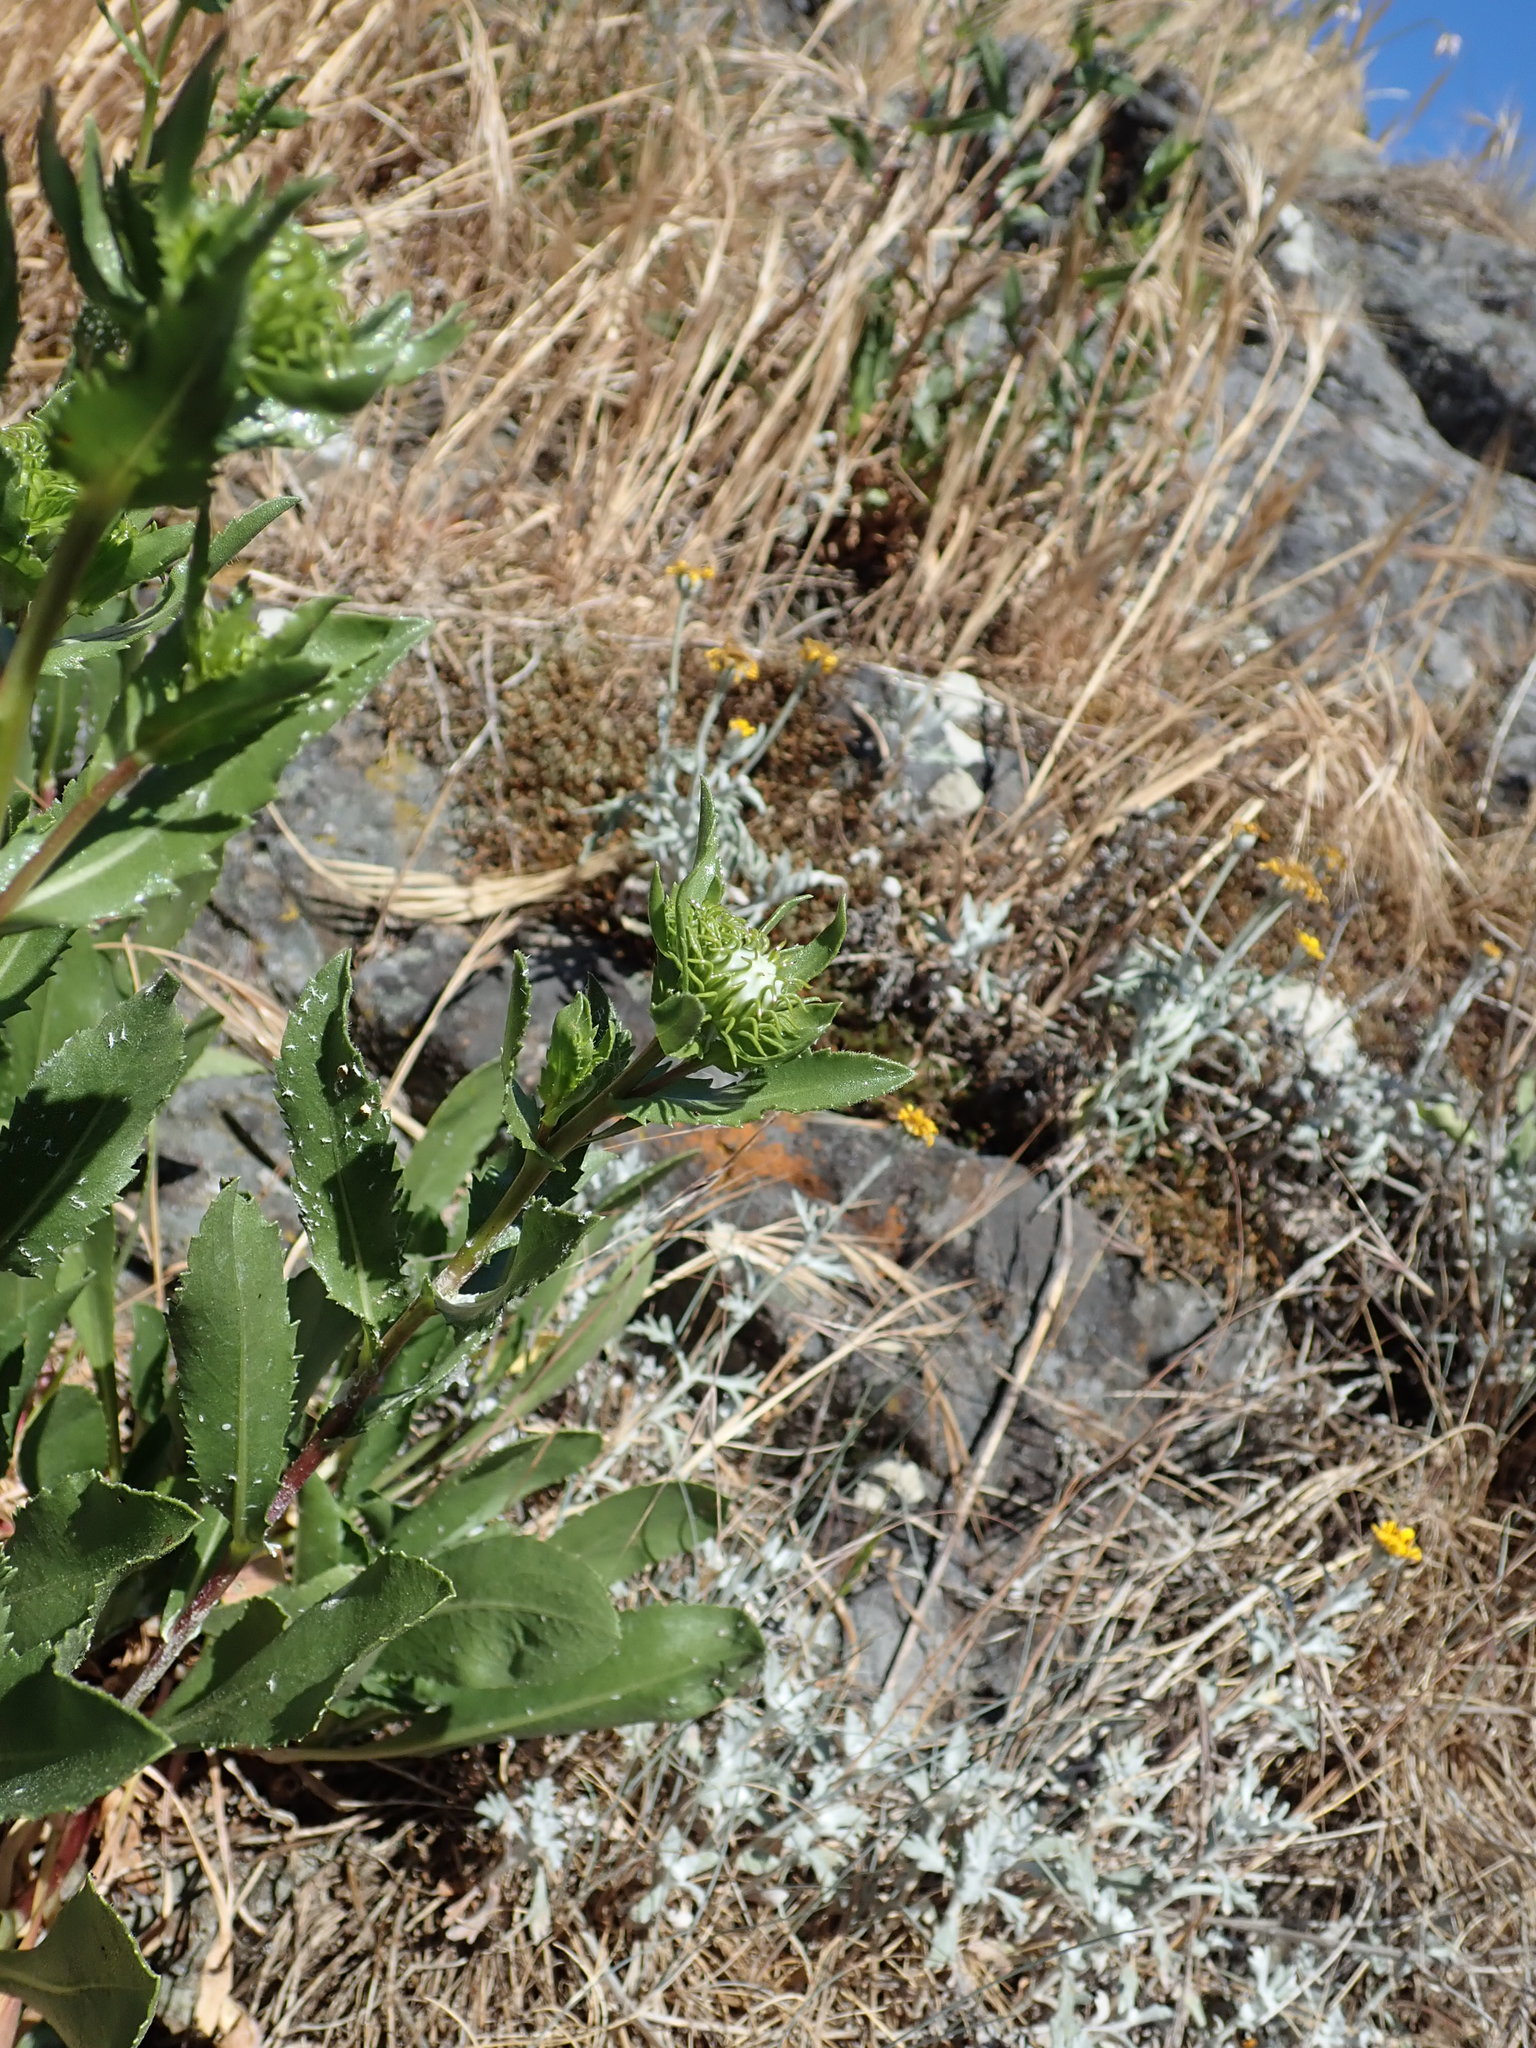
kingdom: Plantae
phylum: Tracheophyta
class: Magnoliopsida
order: Asterales
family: Asteraceae
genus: Grindelia
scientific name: Grindelia
